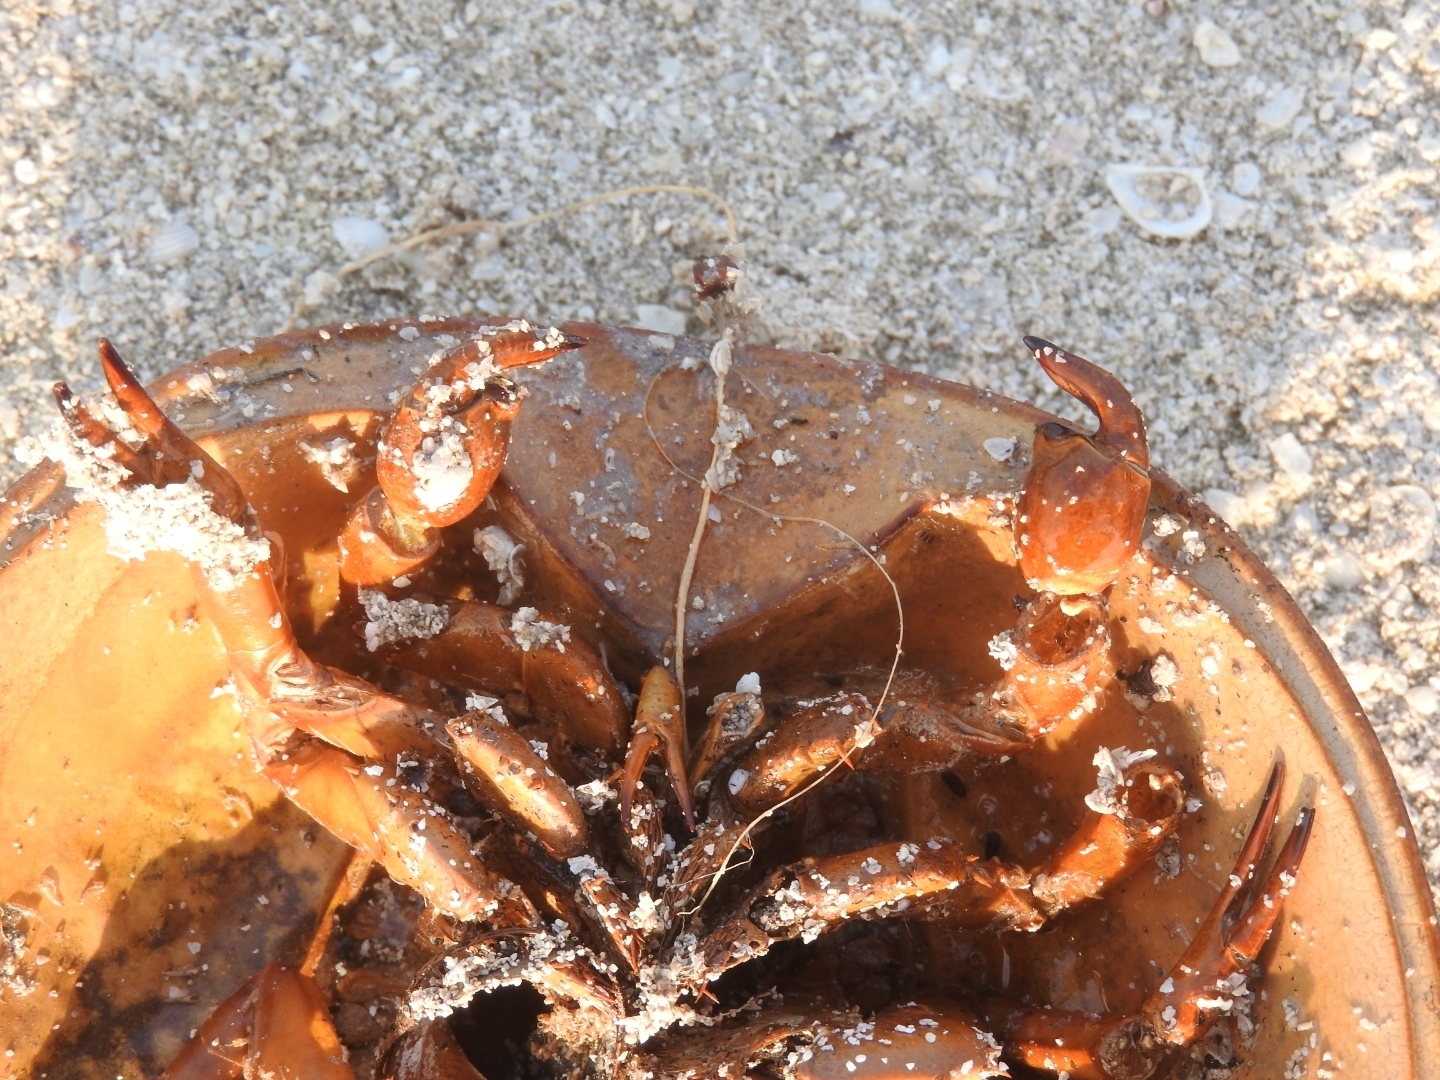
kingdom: Animalia
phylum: Arthropoda
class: Merostomata
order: Xiphosurida
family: Limulidae
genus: Limulus
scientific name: Limulus polyphemus
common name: Horseshoe crab
